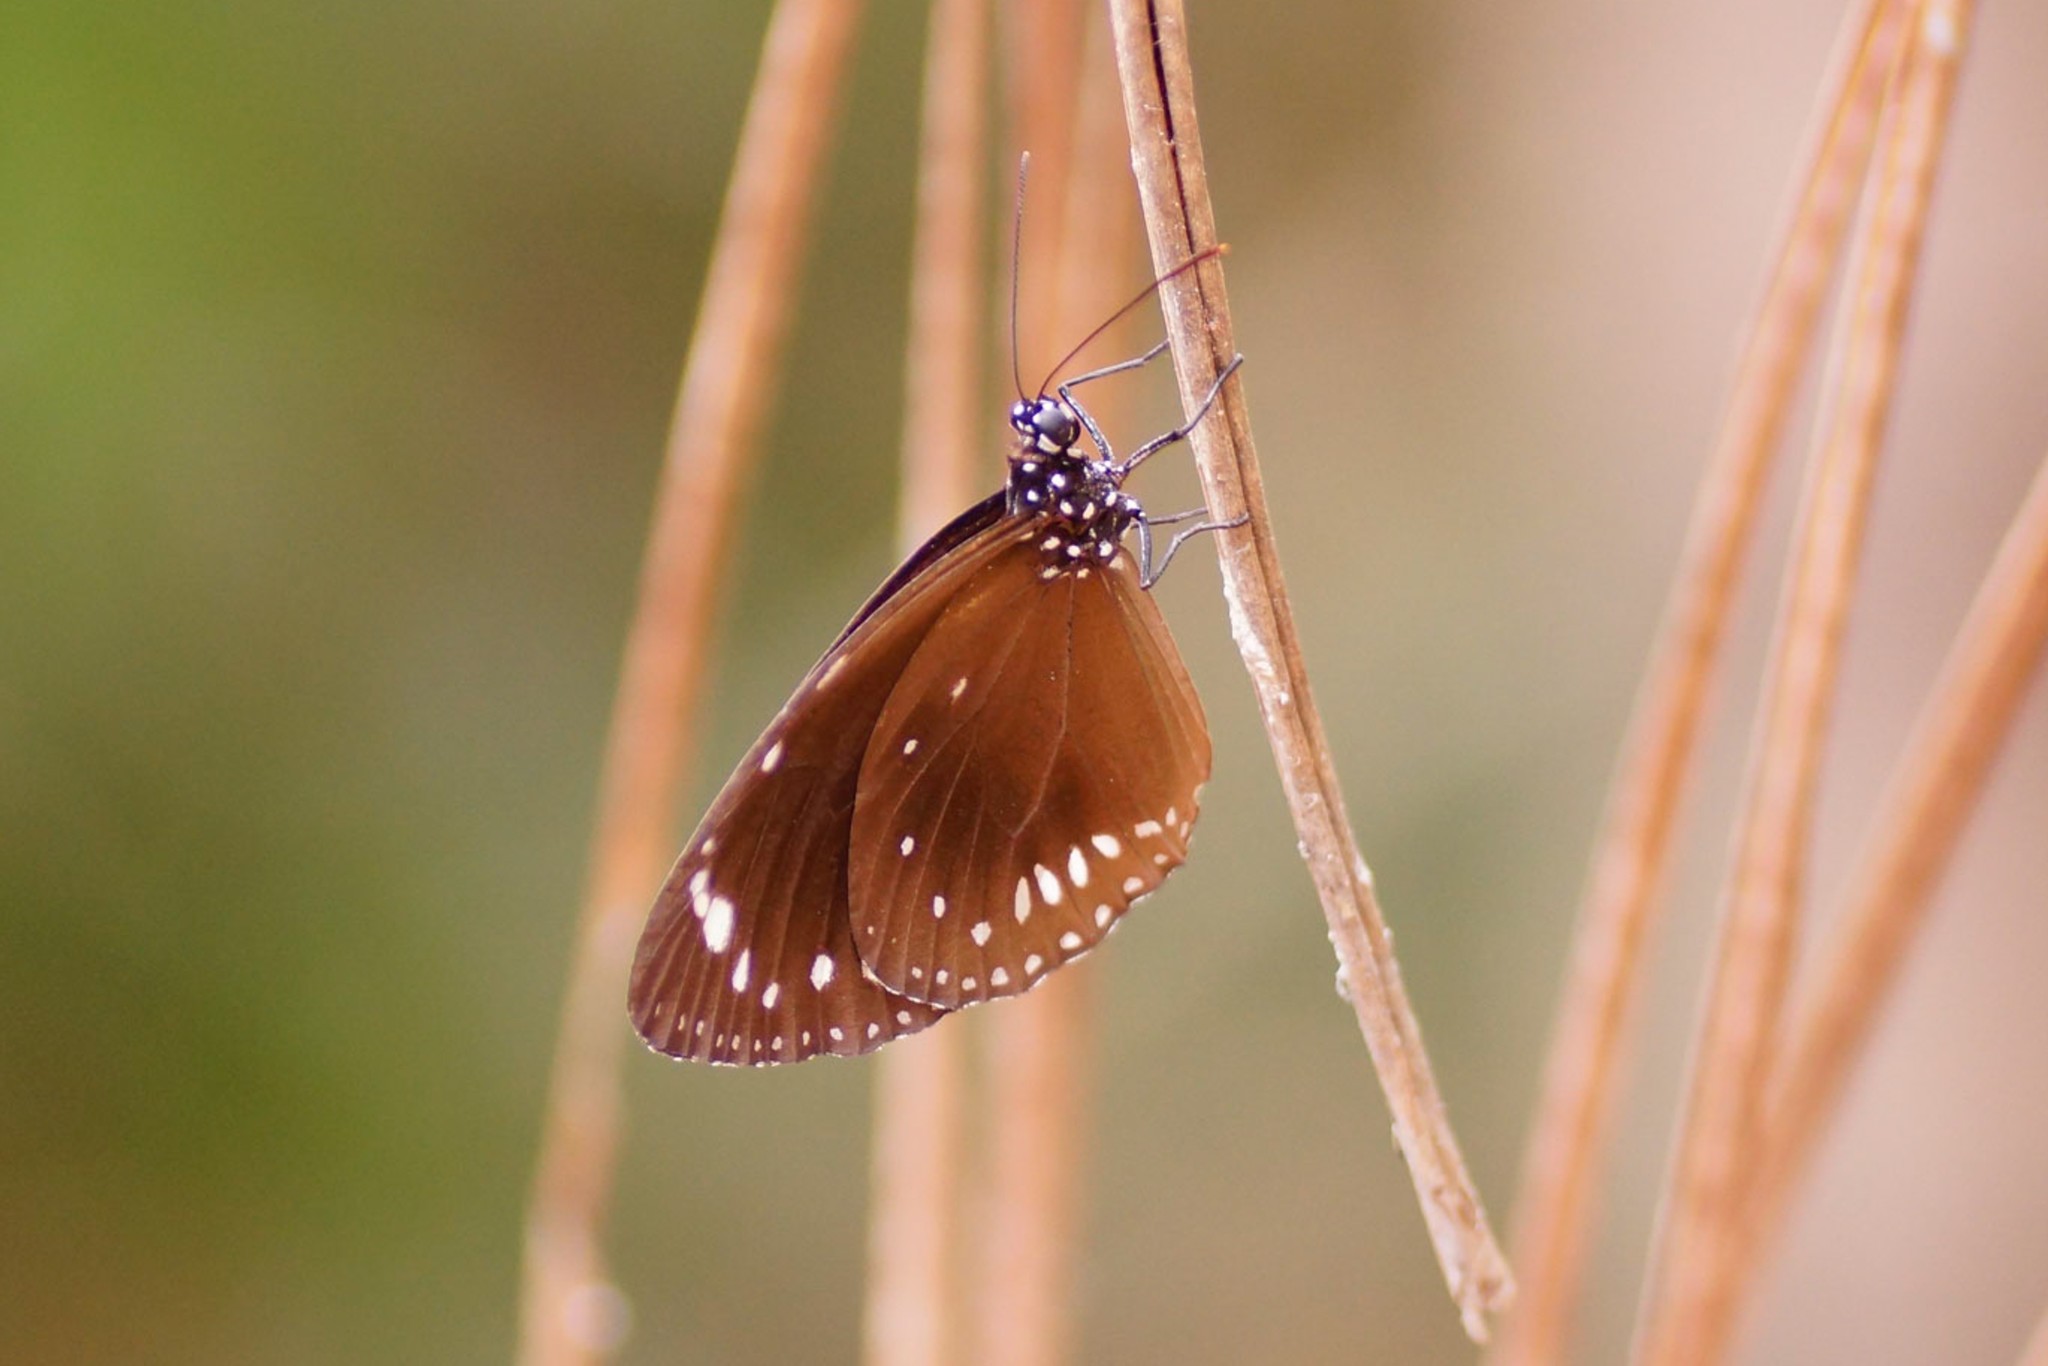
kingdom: Animalia
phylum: Arthropoda
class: Insecta
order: Lepidoptera
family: Nymphalidae
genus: Euploea
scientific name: Euploea darchia
